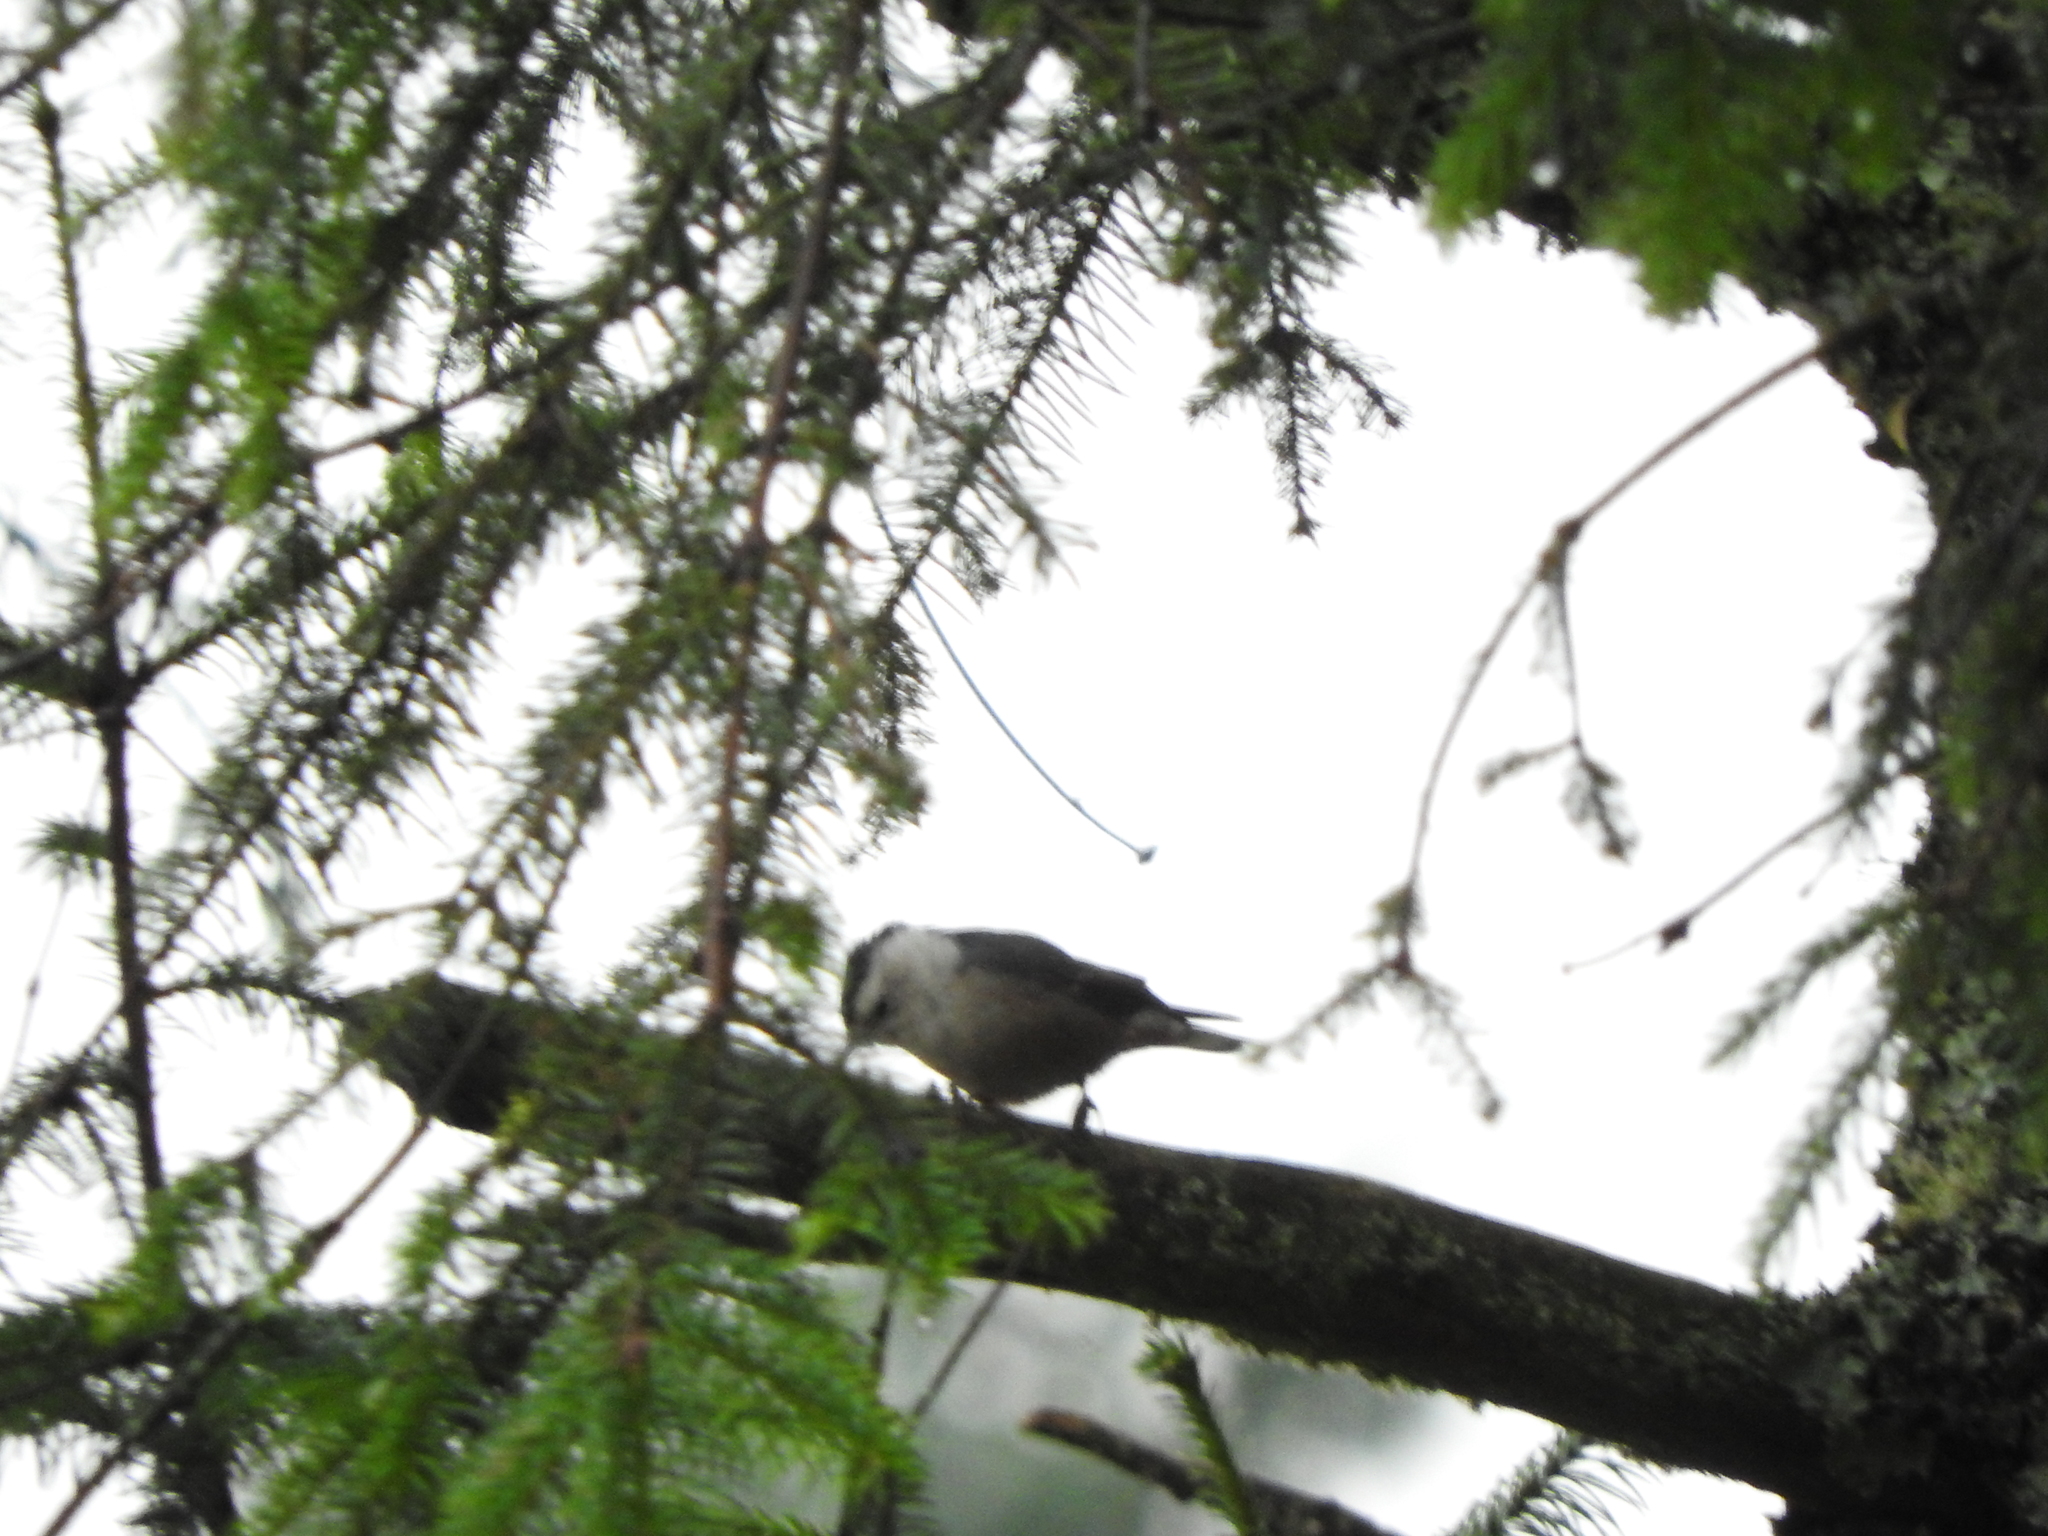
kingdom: Animalia
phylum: Chordata
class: Aves
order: Passeriformes
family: Sittidae
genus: Sitta
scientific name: Sitta carolinensis
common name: White-breasted nuthatch
